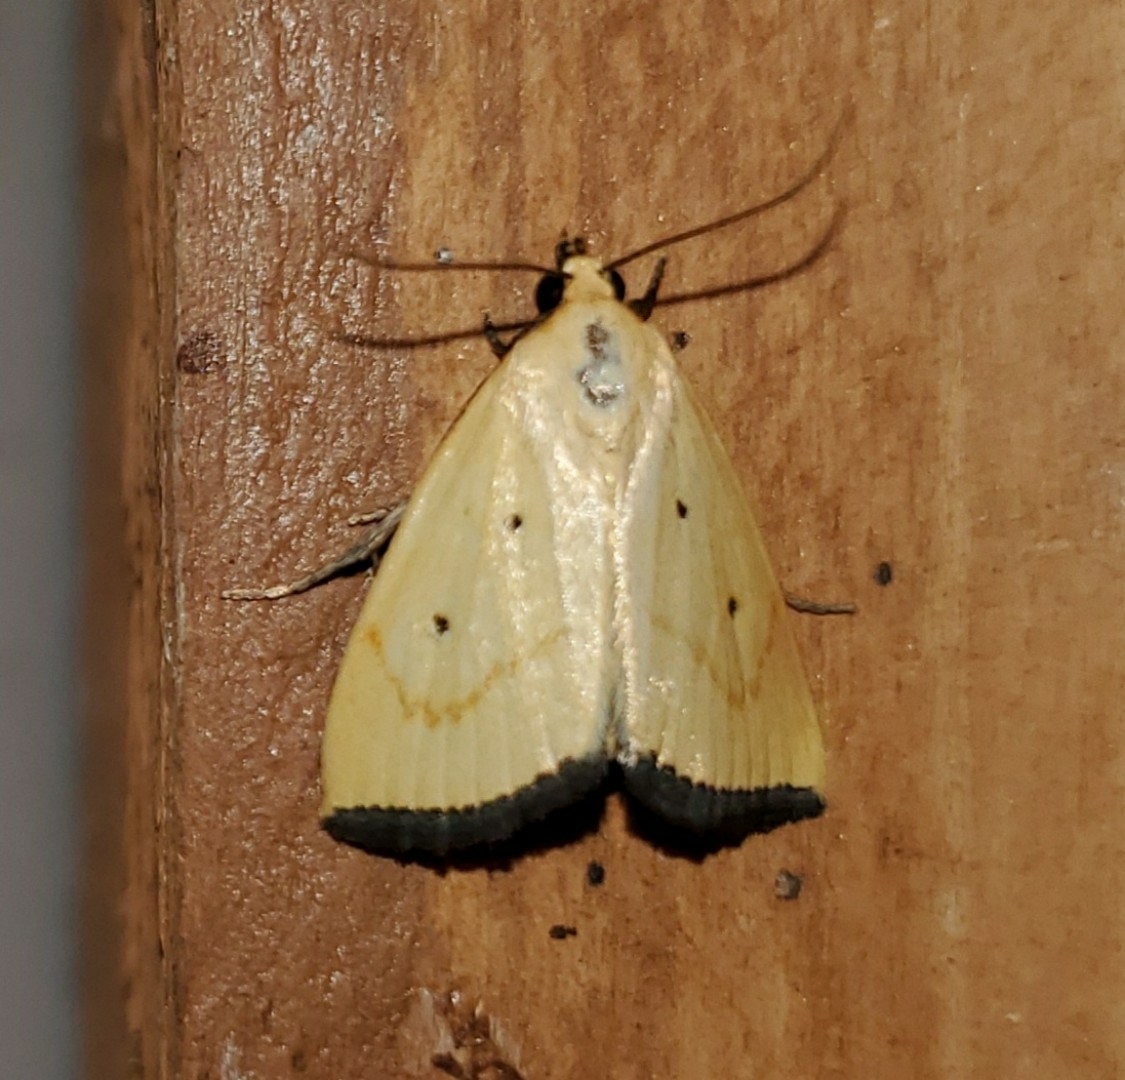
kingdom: Animalia
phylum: Arthropoda
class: Insecta
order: Lepidoptera
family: Noctuidae
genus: Marimatha
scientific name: Marimatha nigrofimbria
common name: Black-bordered lemon moth
